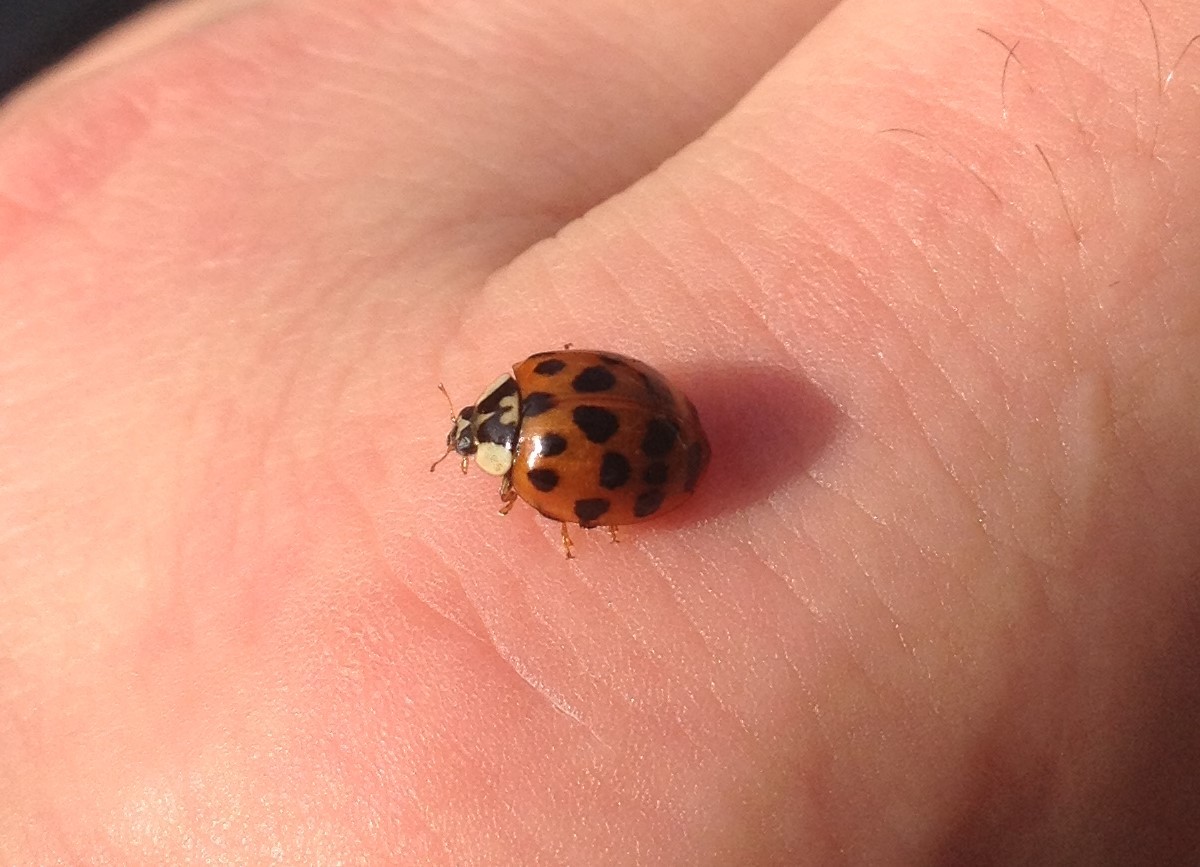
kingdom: Animalia
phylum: Arthropoda
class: Insecta
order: Coleoptera
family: Coccinellidae
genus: Harmonia
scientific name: Harmonia axyridis
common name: Harlequin ladybird
